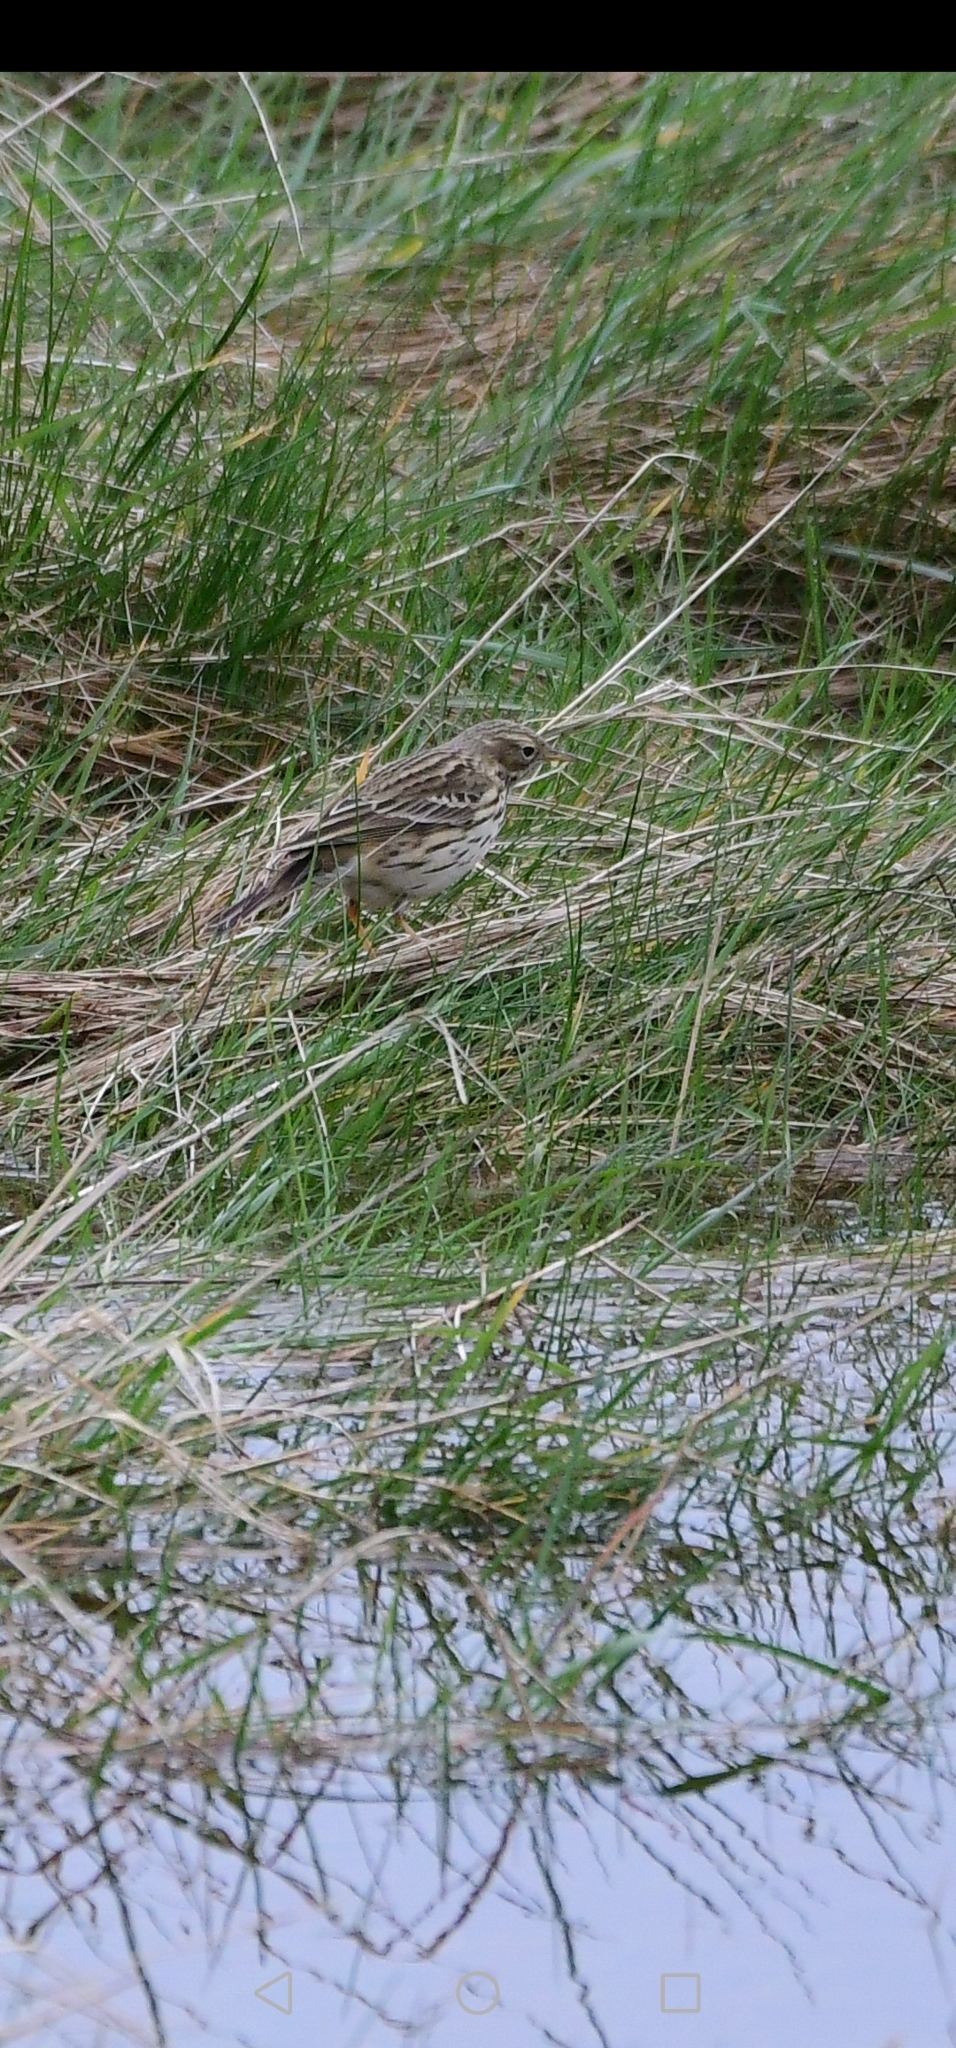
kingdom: Animalia
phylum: Chordata
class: Aves
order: Passeriformes
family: Motacillidae
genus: Anthus
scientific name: Anthus pratensis
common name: Meadow pipit
